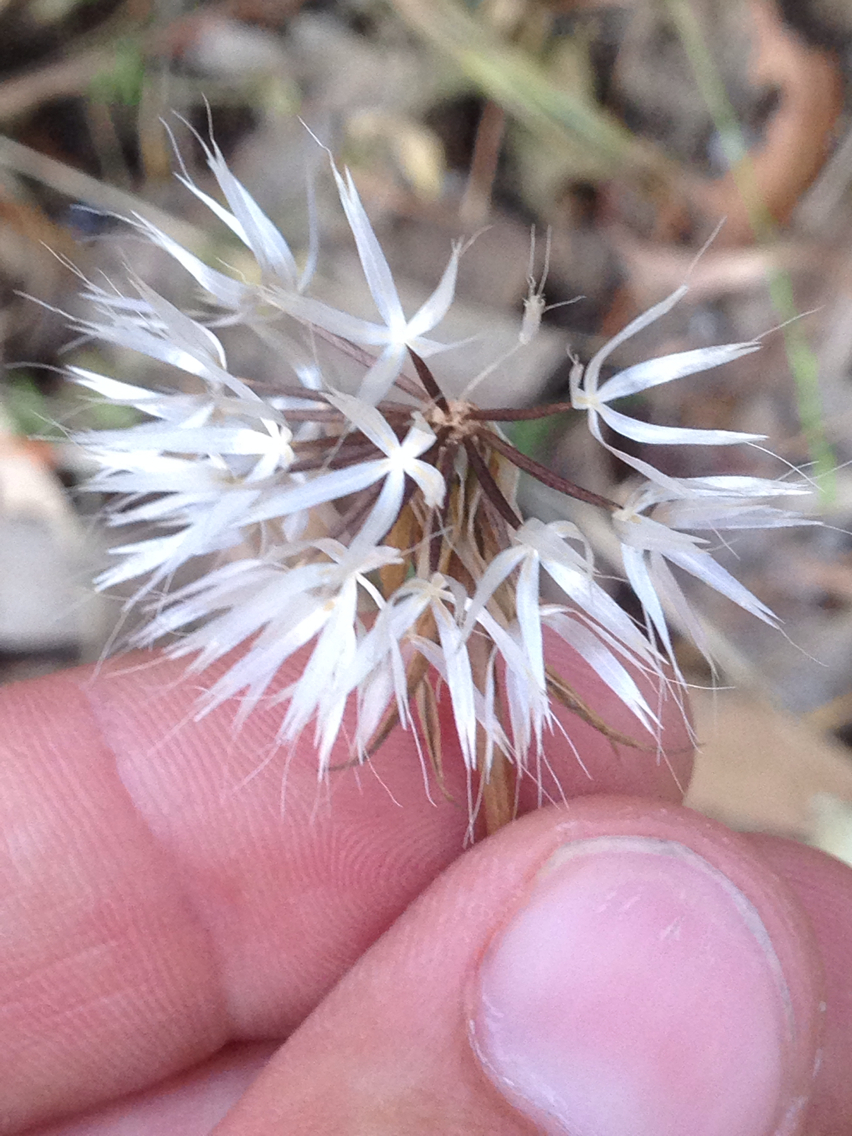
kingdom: Plantae
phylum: Tracheophyta
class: Magnoliopsida
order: Asterales
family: Asteraceae
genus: Microseris
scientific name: Microseris lindleyi
